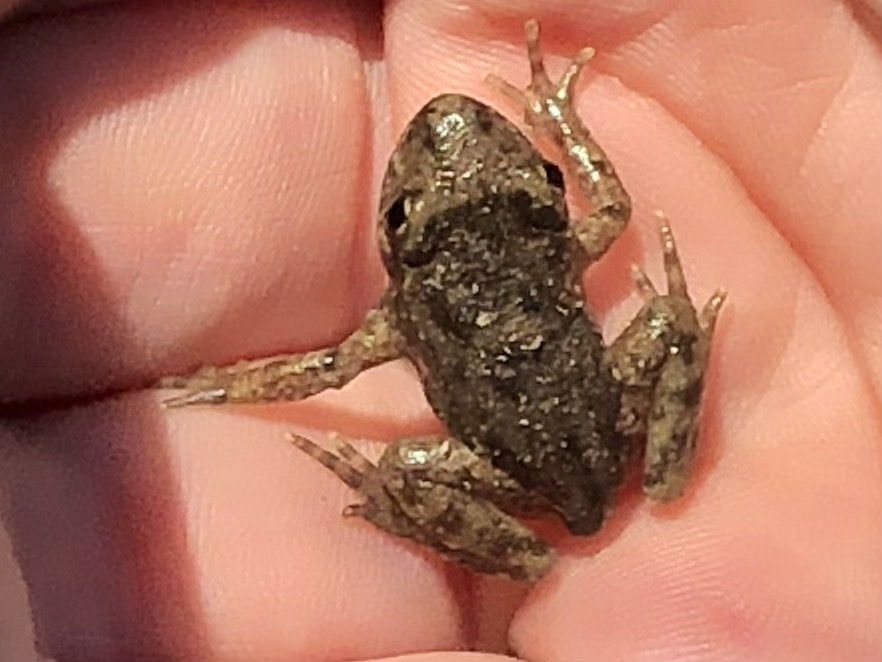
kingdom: Animalia
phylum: Chordata
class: Amphibia
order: Anura
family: Alytidae
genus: Alytes
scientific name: Alytes obstetricans
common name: Midwife toad
